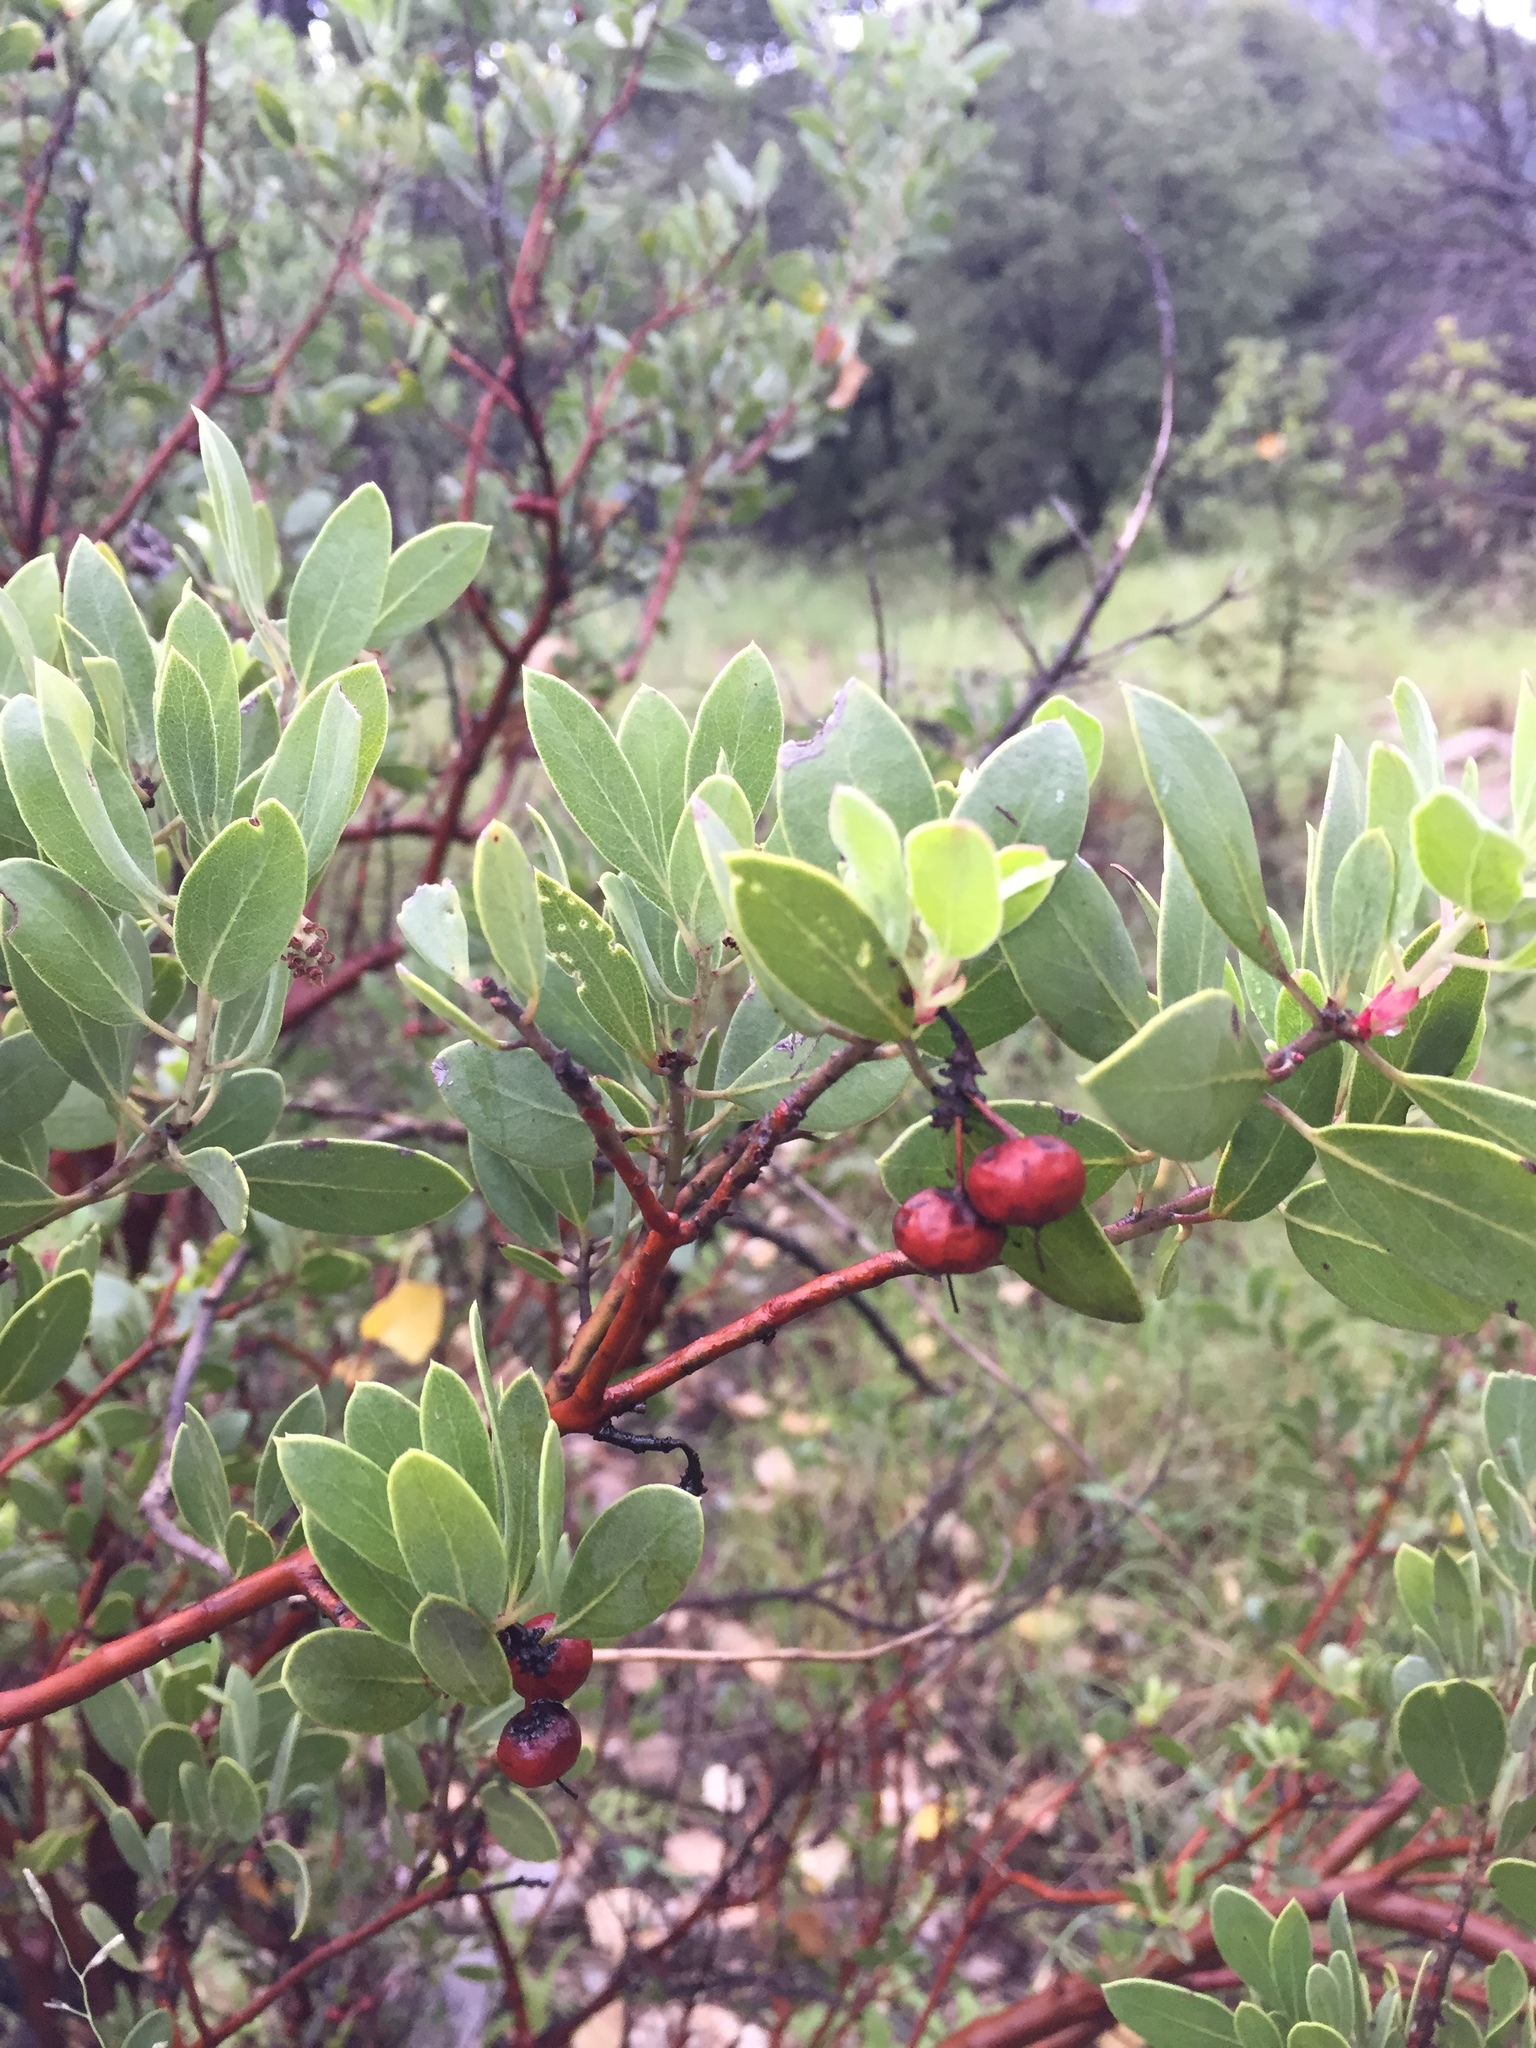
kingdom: Plantae
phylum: Tracheophyta
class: Magnoliopsida
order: Ericales
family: Ericaceae
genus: Arctostaphylos
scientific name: Arctostaphylos pungens
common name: Mexican manzanita
